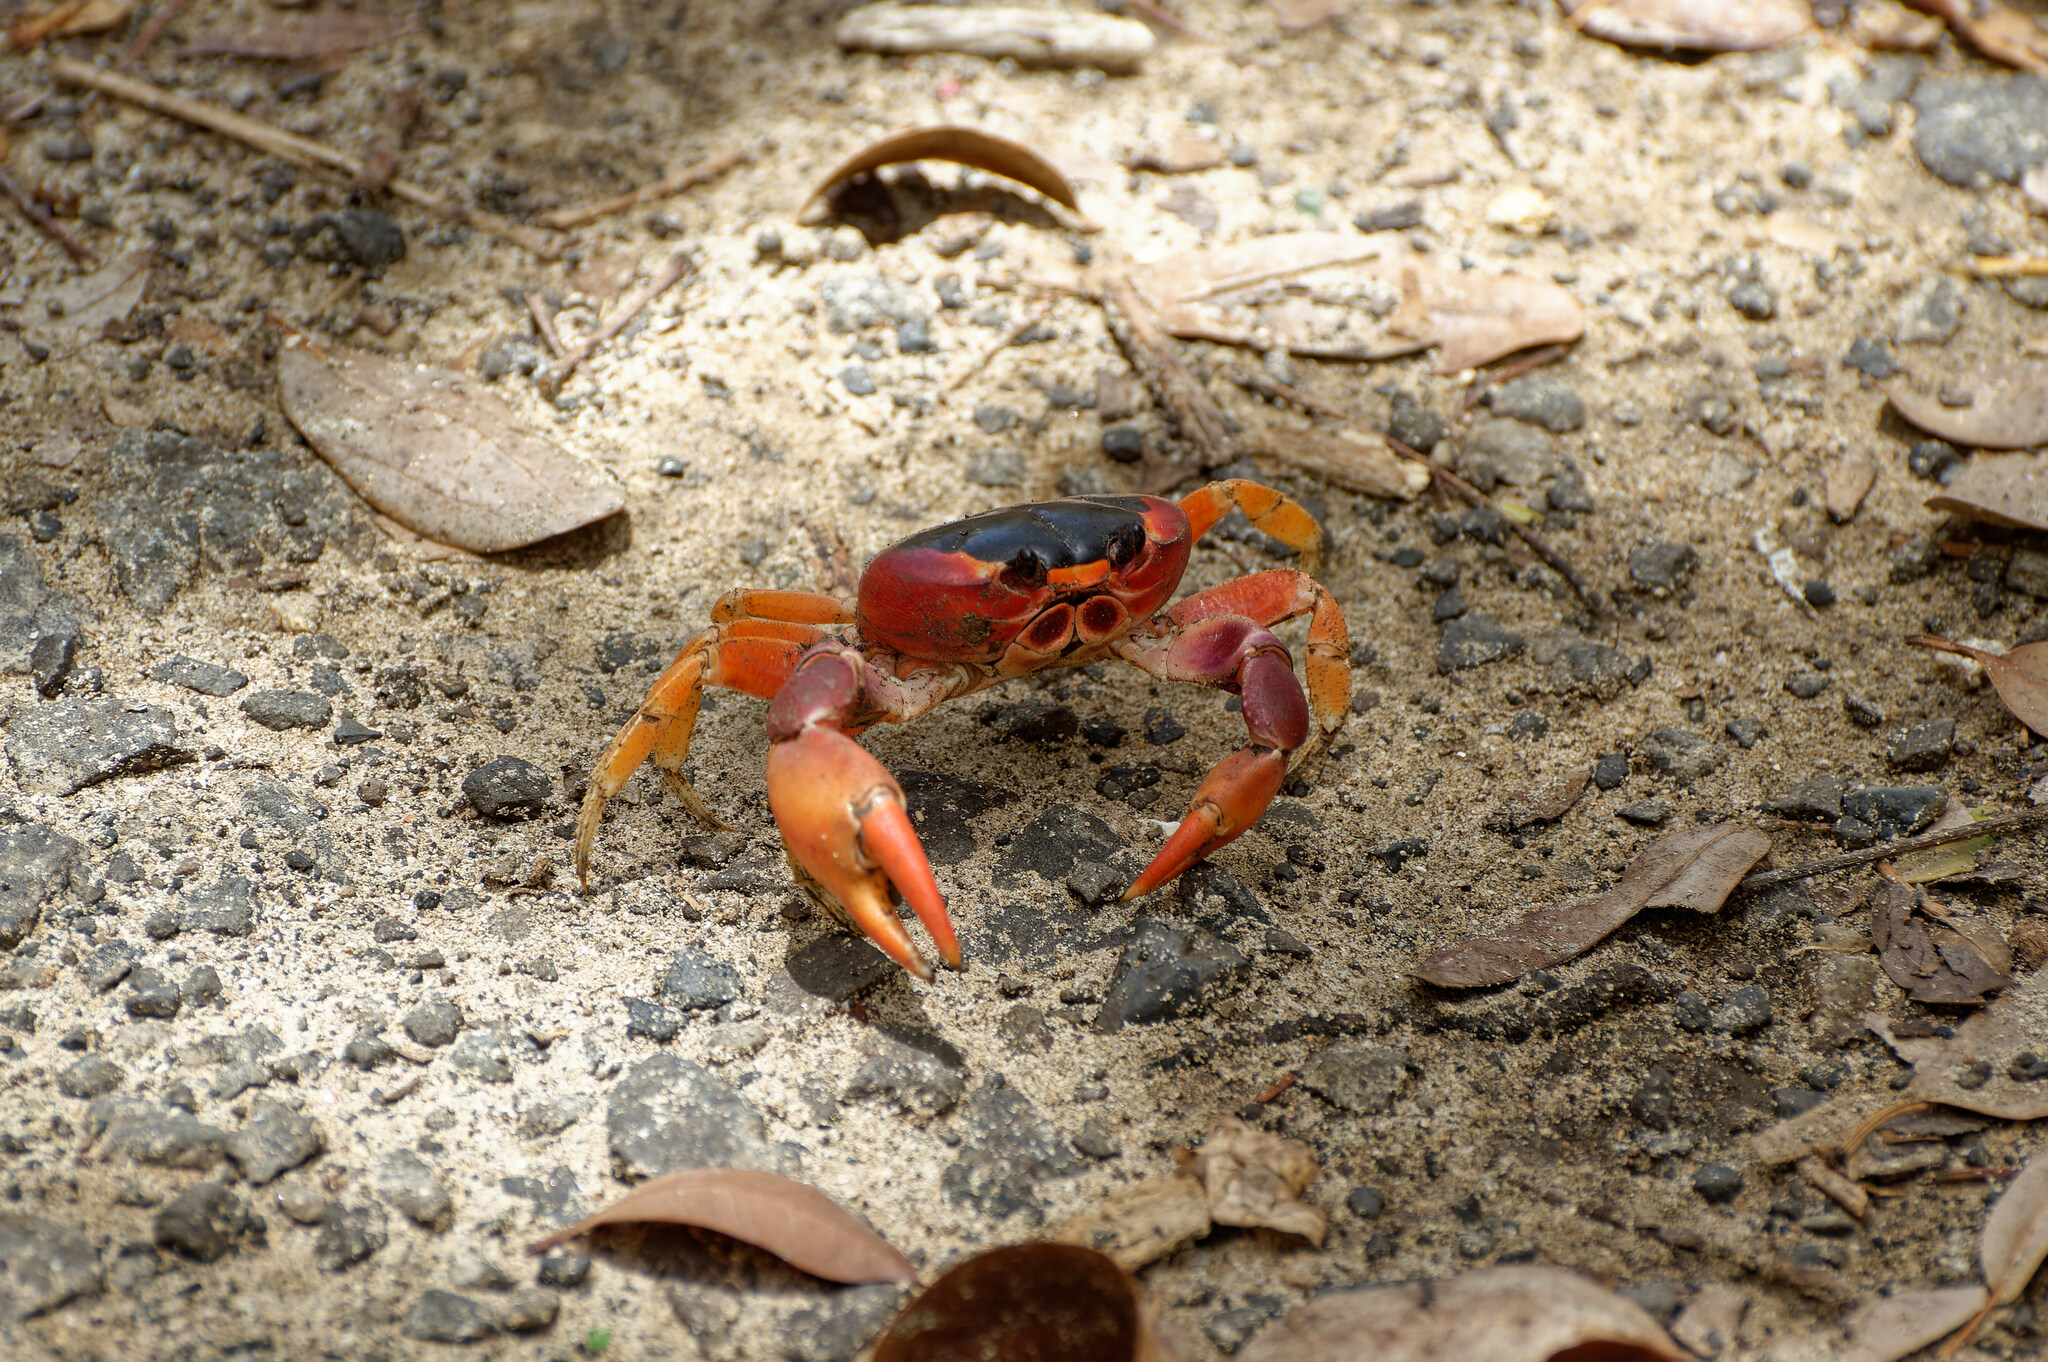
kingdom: Animalia
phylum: Arthropoda
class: Malacostraca
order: Decapoda
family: Gecarcinidae
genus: Gecarcinus
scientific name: Gecarcinus lateralis
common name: Bermuda land crab
